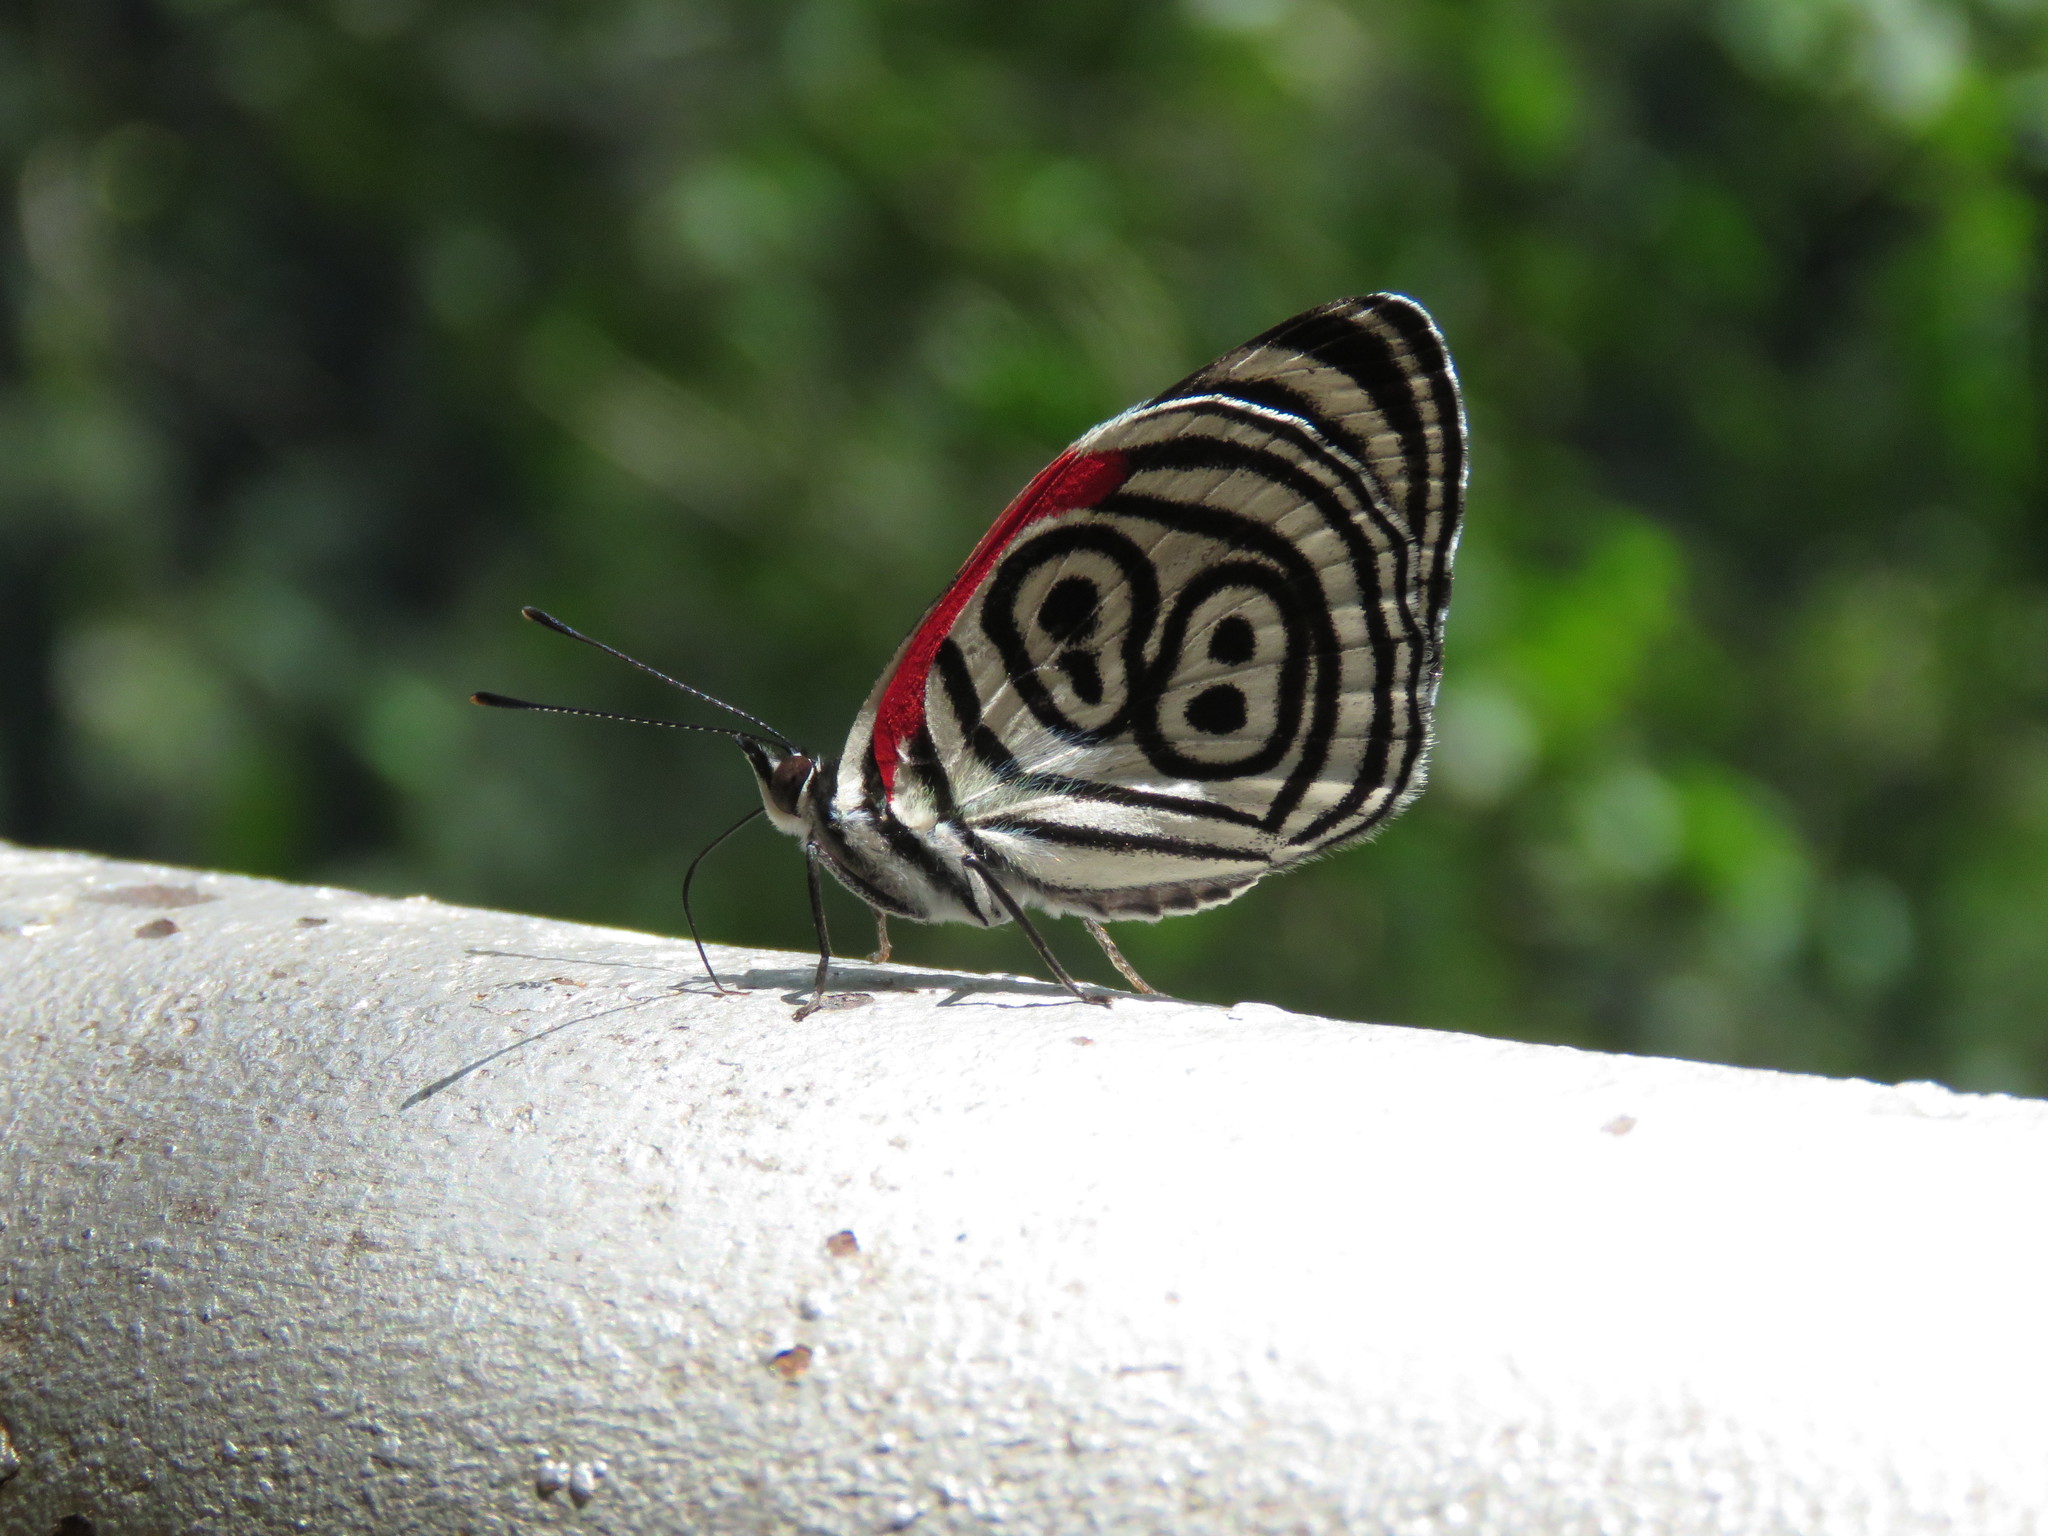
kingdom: Animalia
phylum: Arthropoda
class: Insecta
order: Lepidoptera
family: Nymphalidae
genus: Diaethria
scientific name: Diaethria clymena
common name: Widespread eighty-eight
